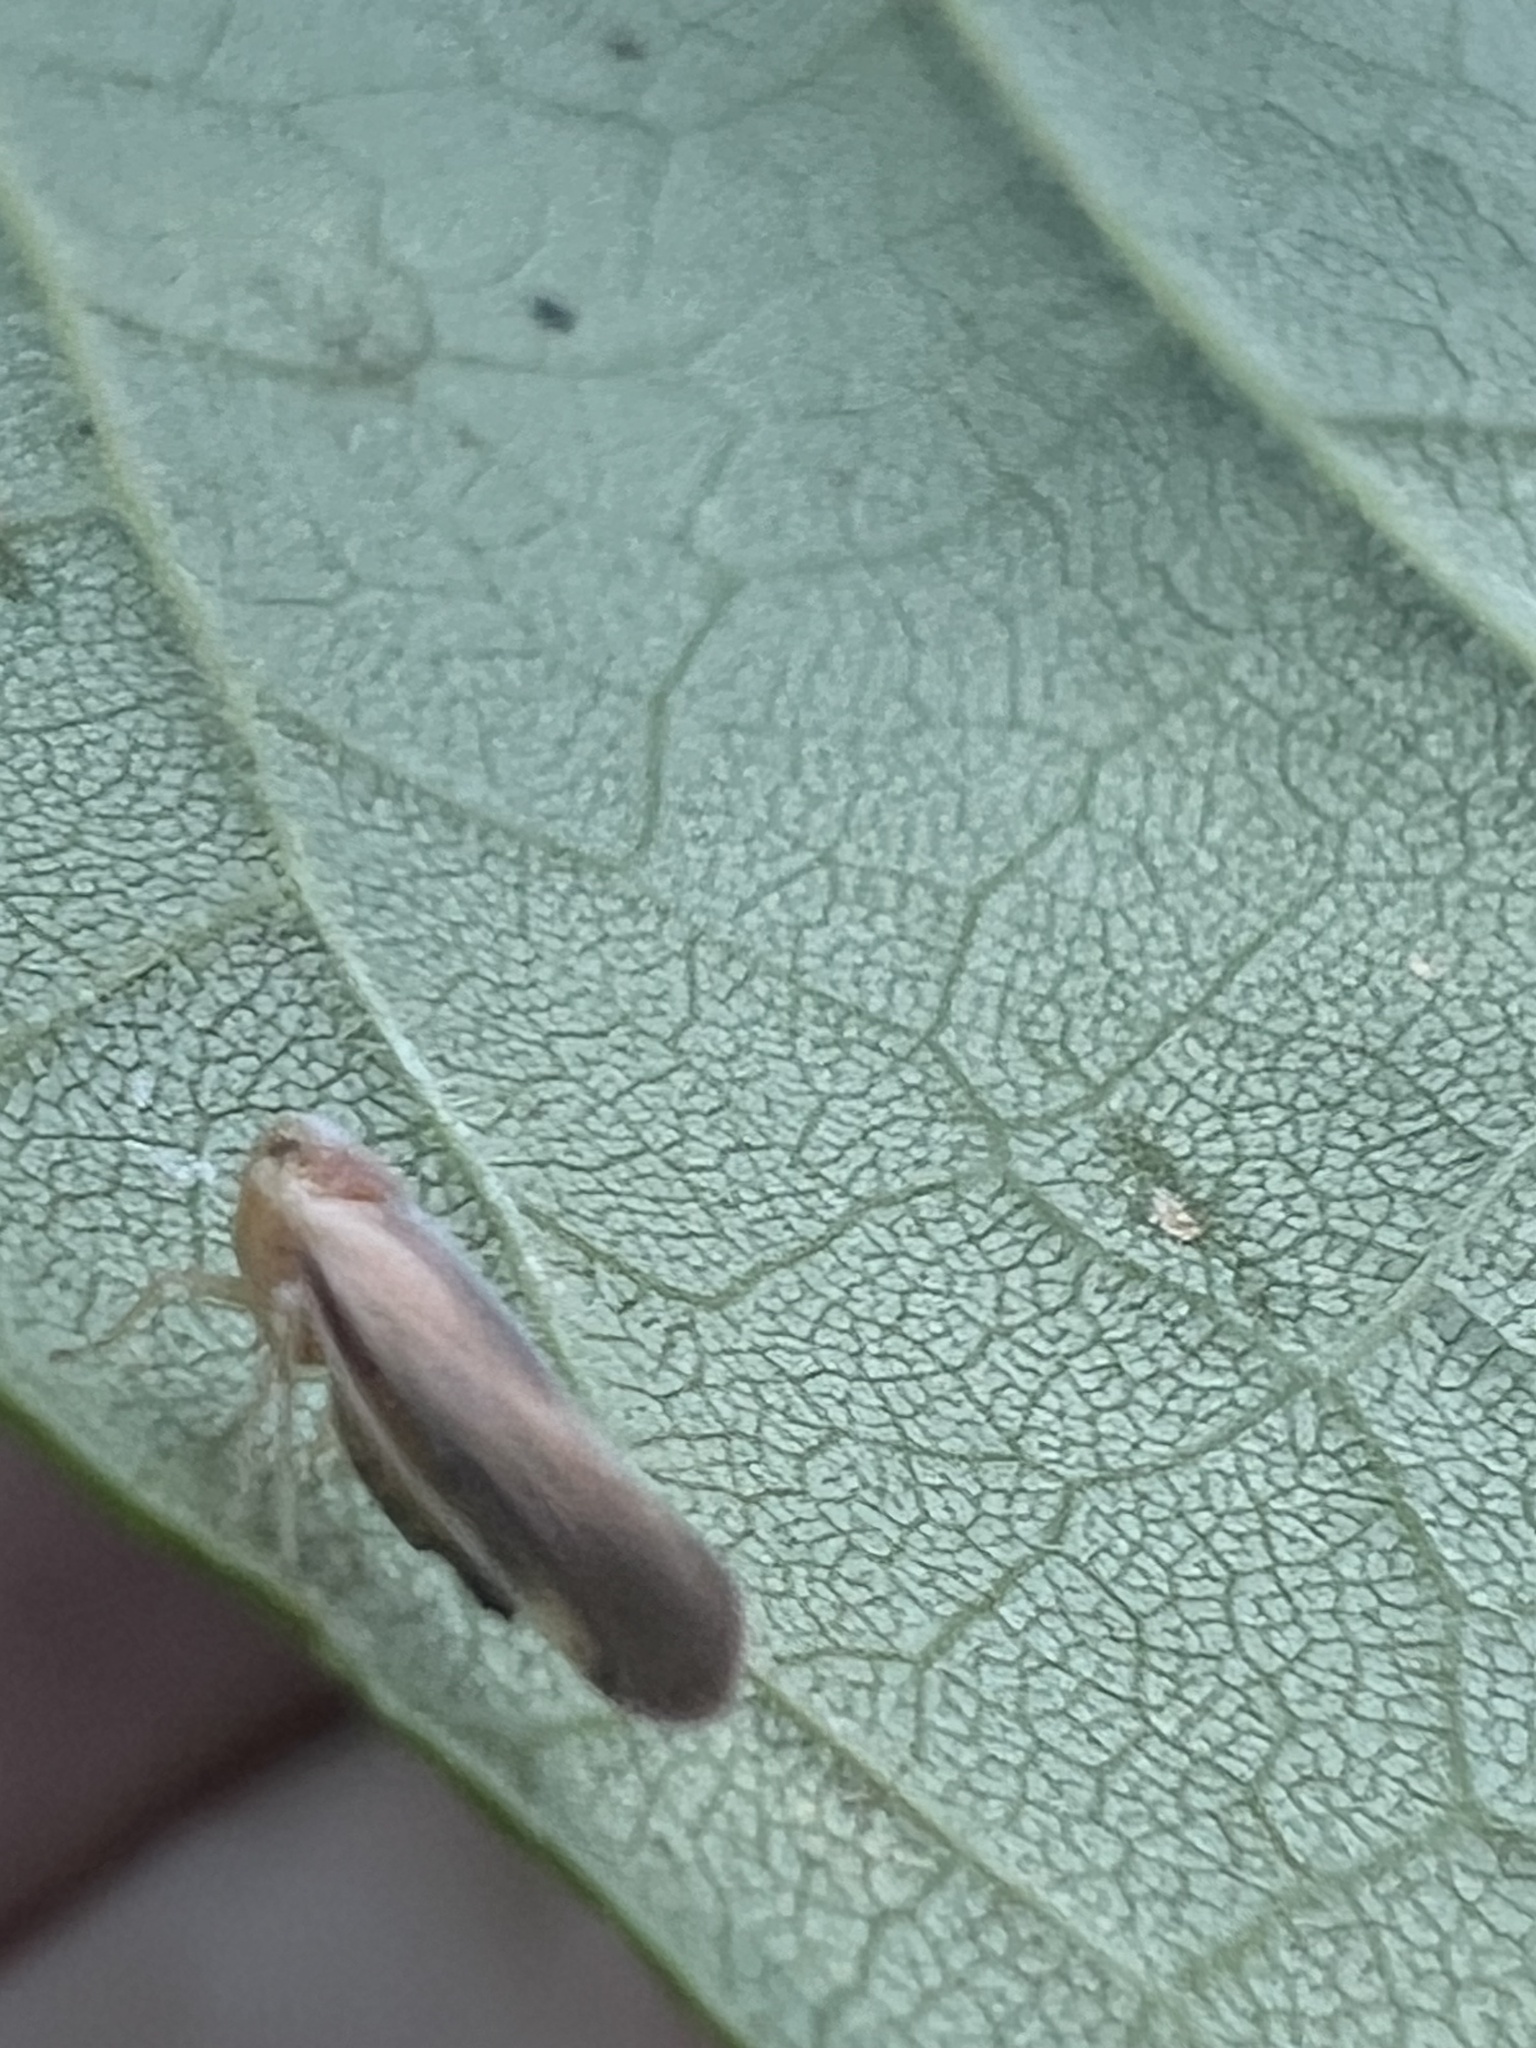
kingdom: Animalia
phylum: Arthropoda
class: Insecta
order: Hemiptera
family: Derbidae
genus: Omolicna
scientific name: Omolicna uhleri
